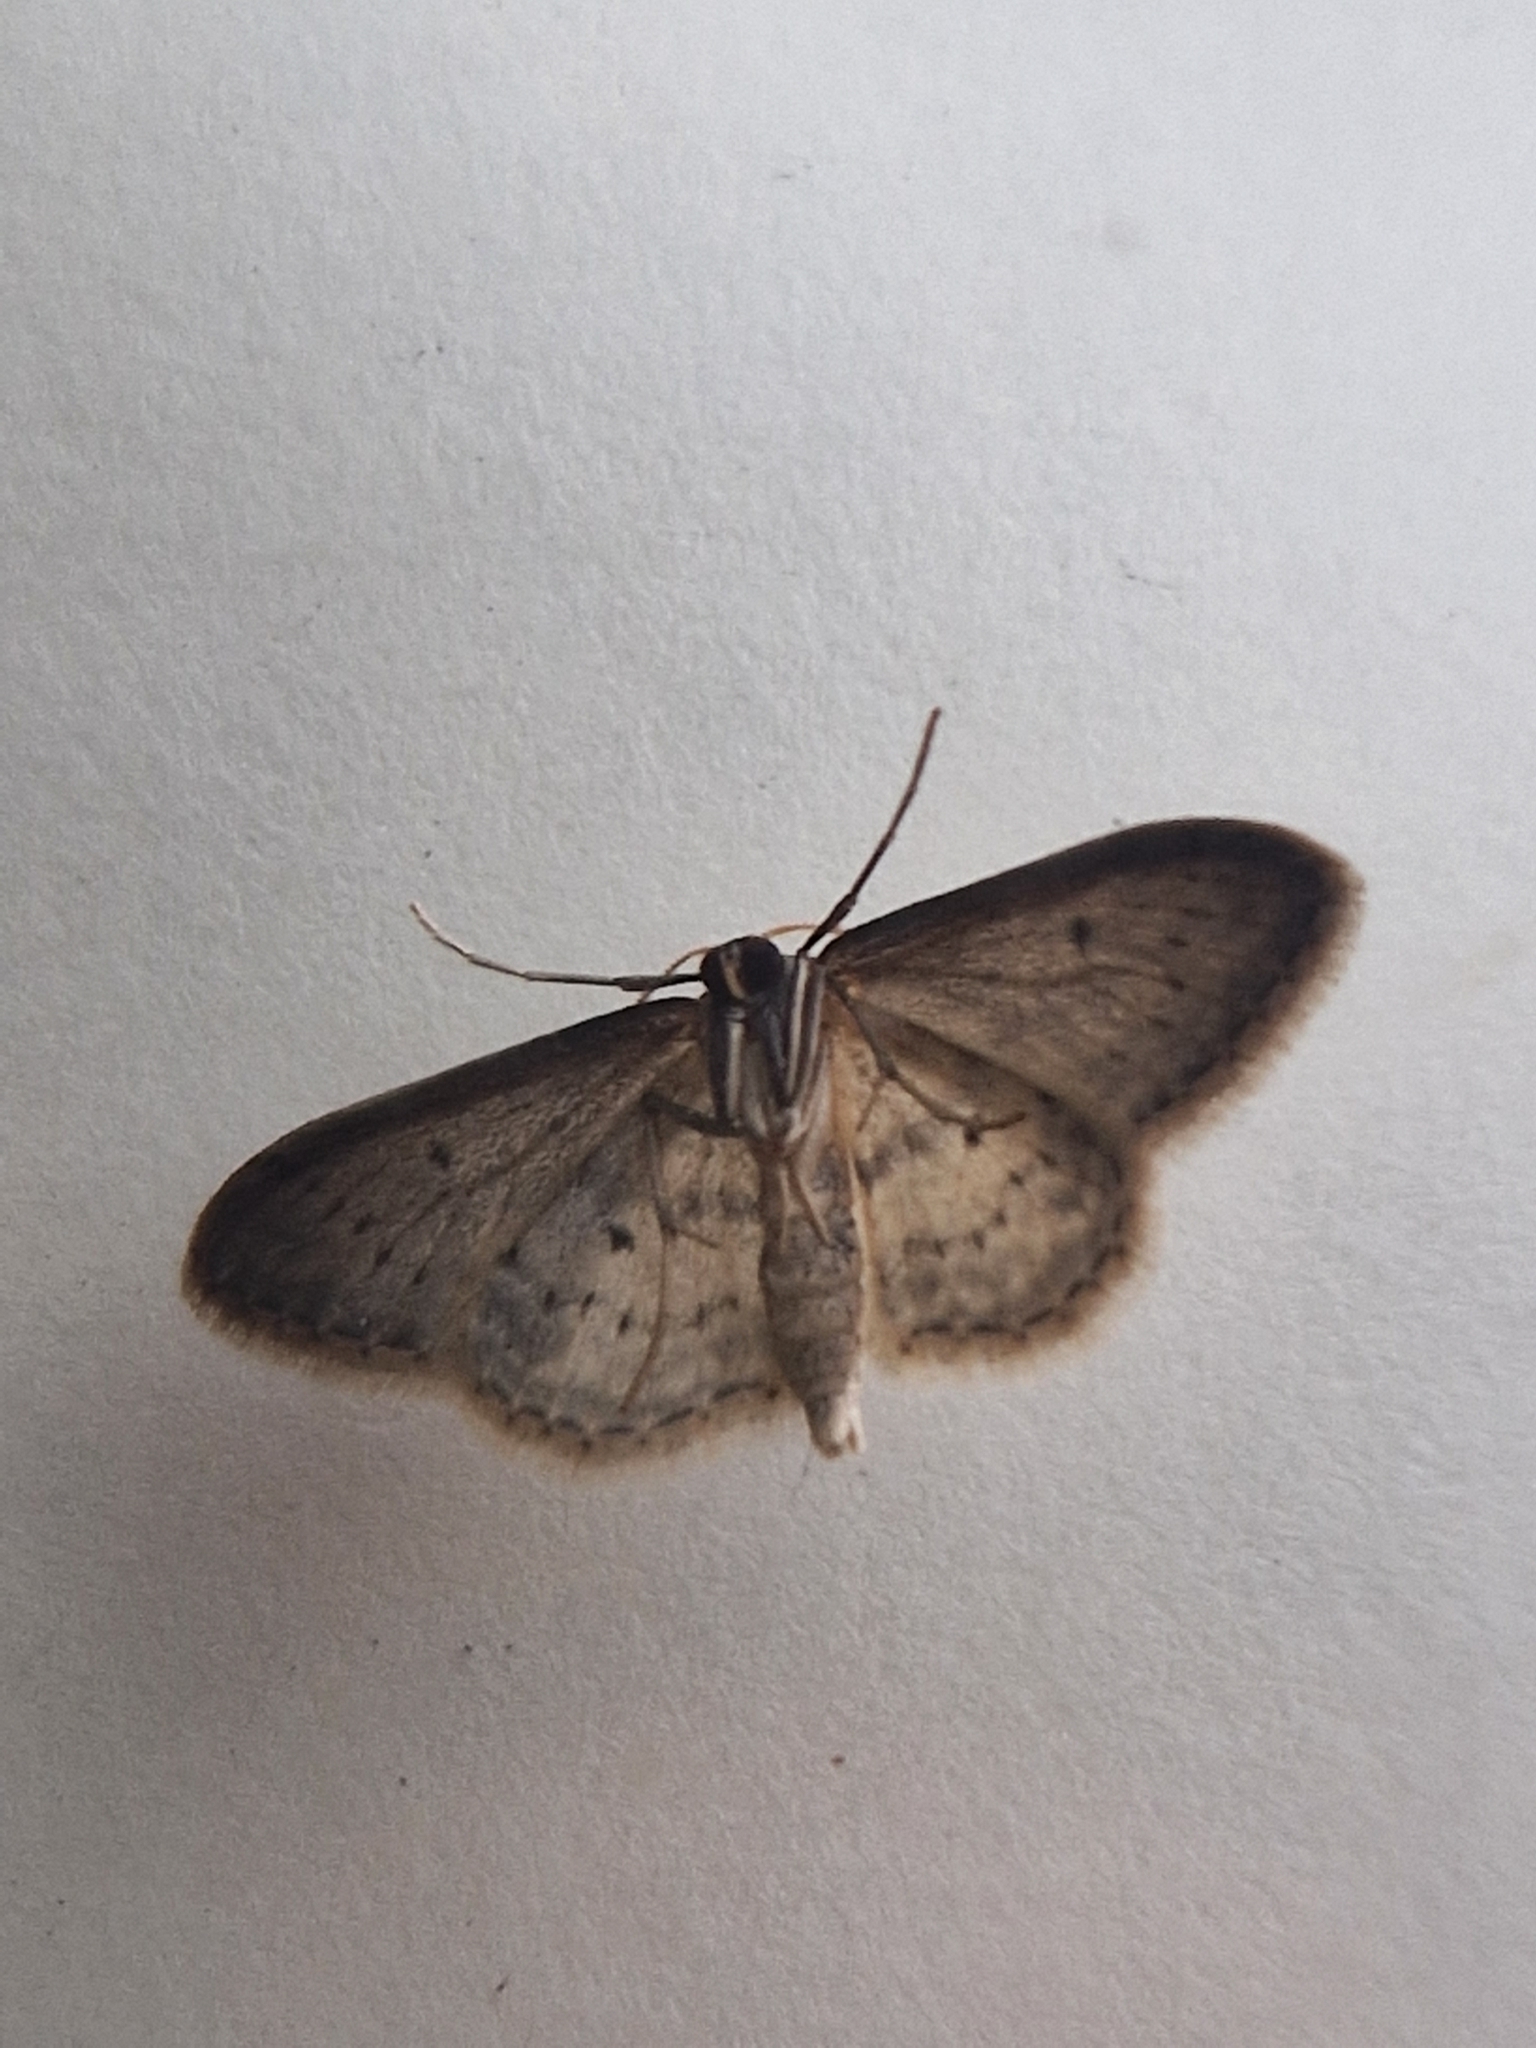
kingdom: Animalia
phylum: Arthropoda
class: Insecta
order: Lepidoptera
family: Geometridae
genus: Idaea
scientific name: Idaea seriata
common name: Small dusty wave
